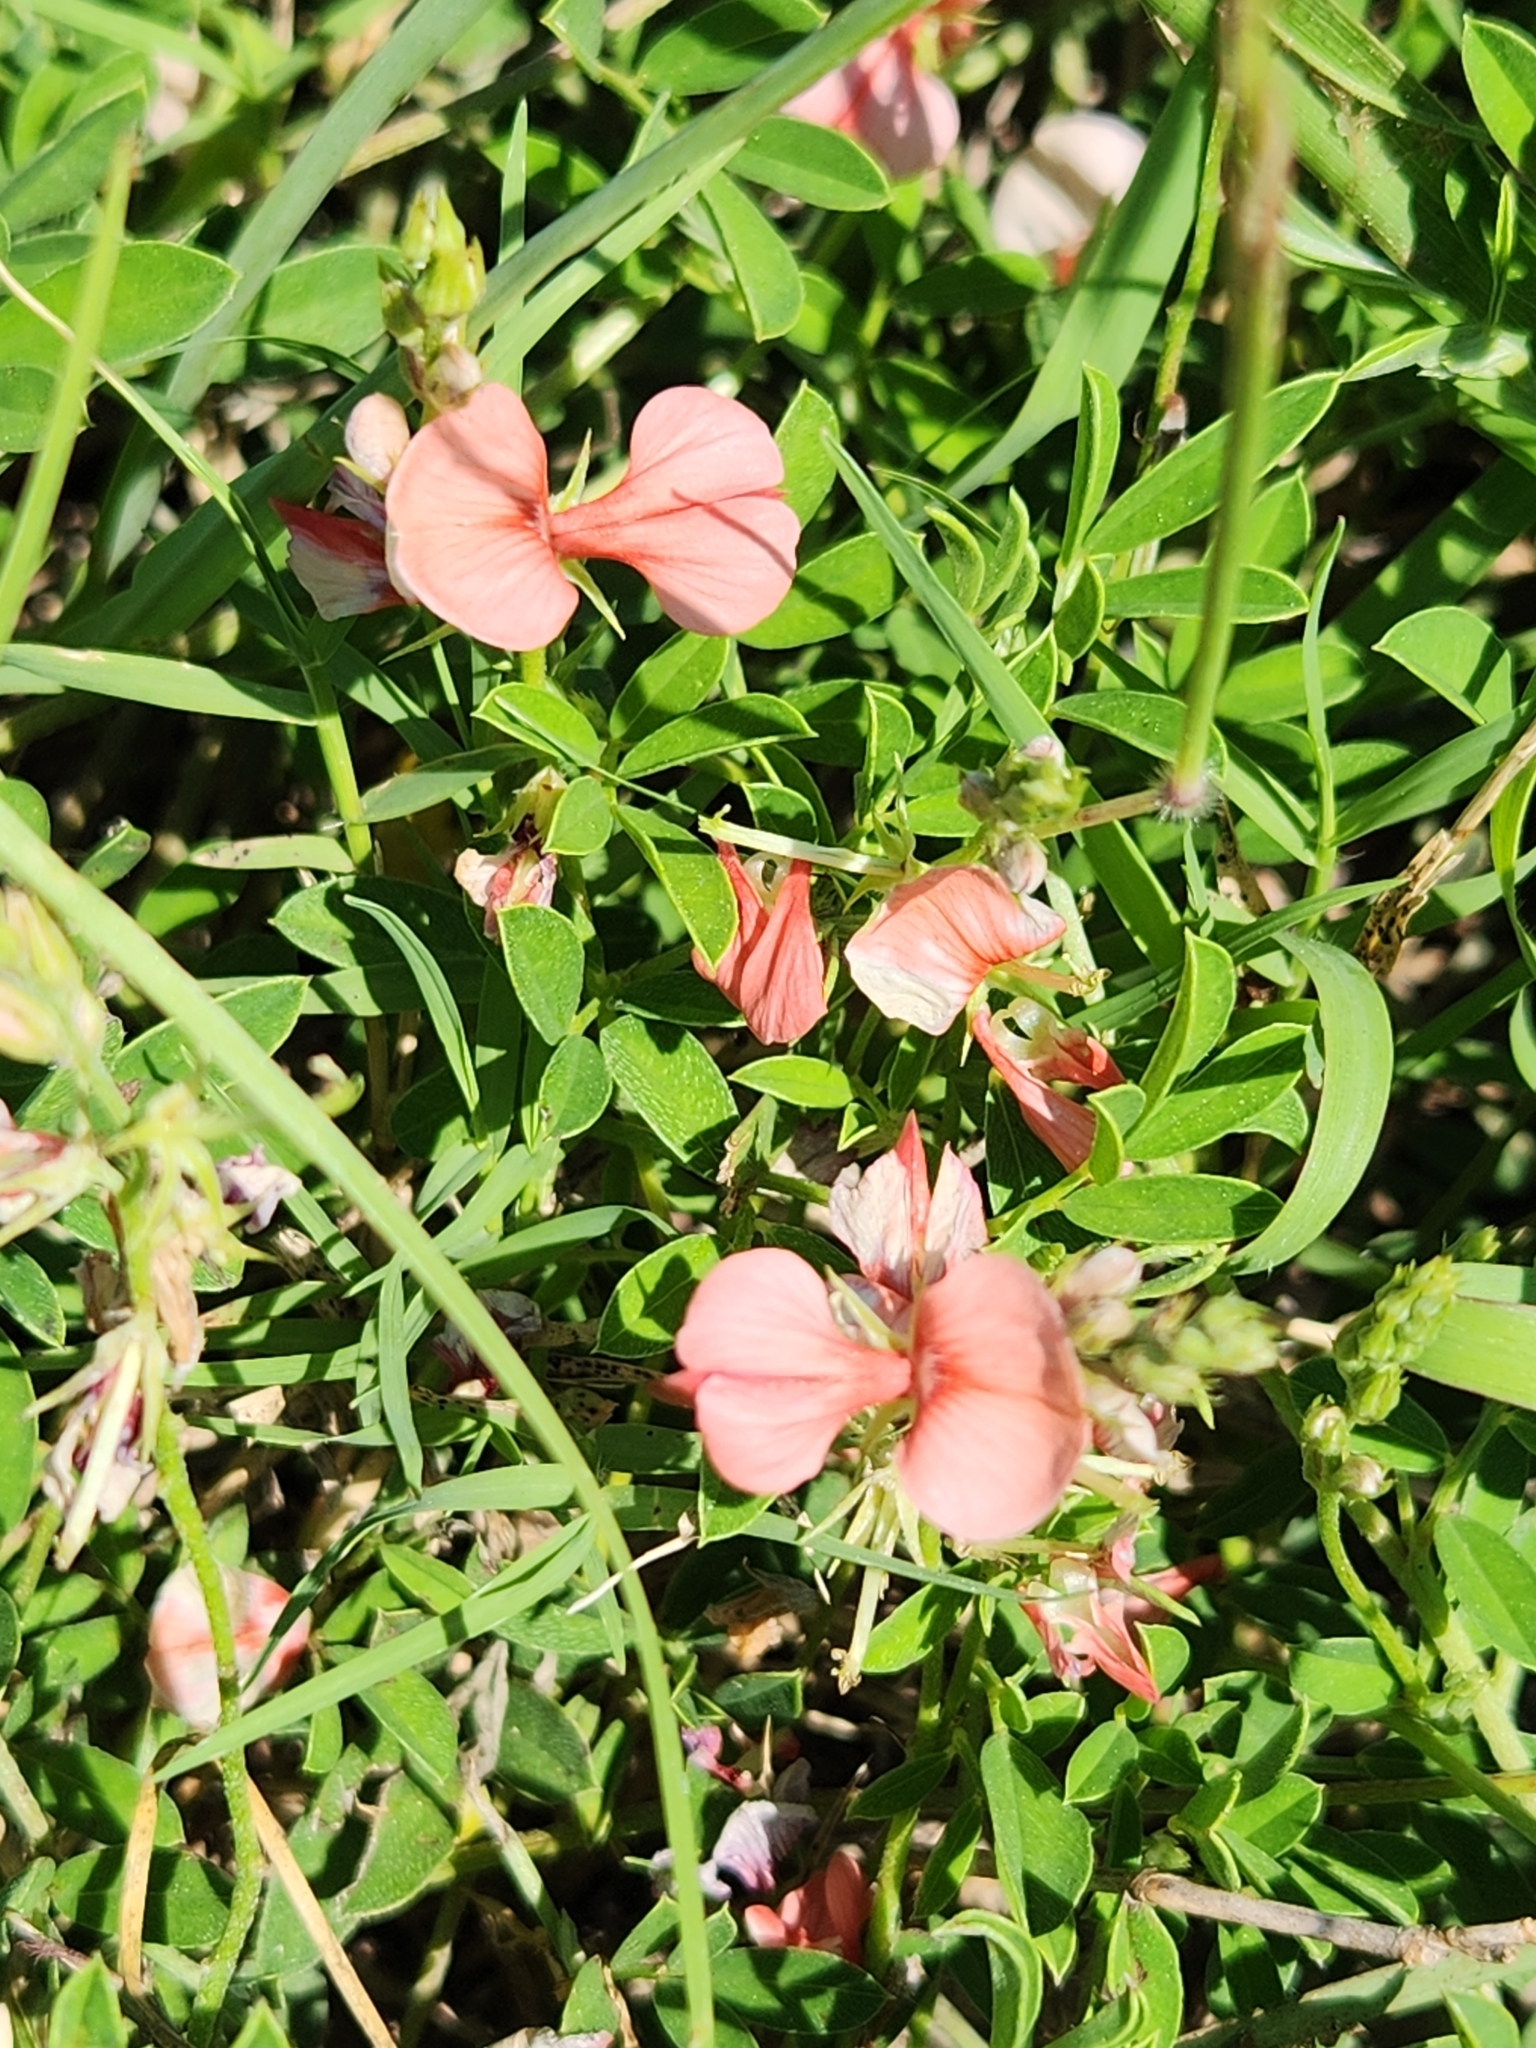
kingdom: Plantae
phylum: Tracheophyta
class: Magnoliopsida
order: Fabales
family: Fabaceae
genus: Indigofera
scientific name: Indigofera miniata
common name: Coast indigo
